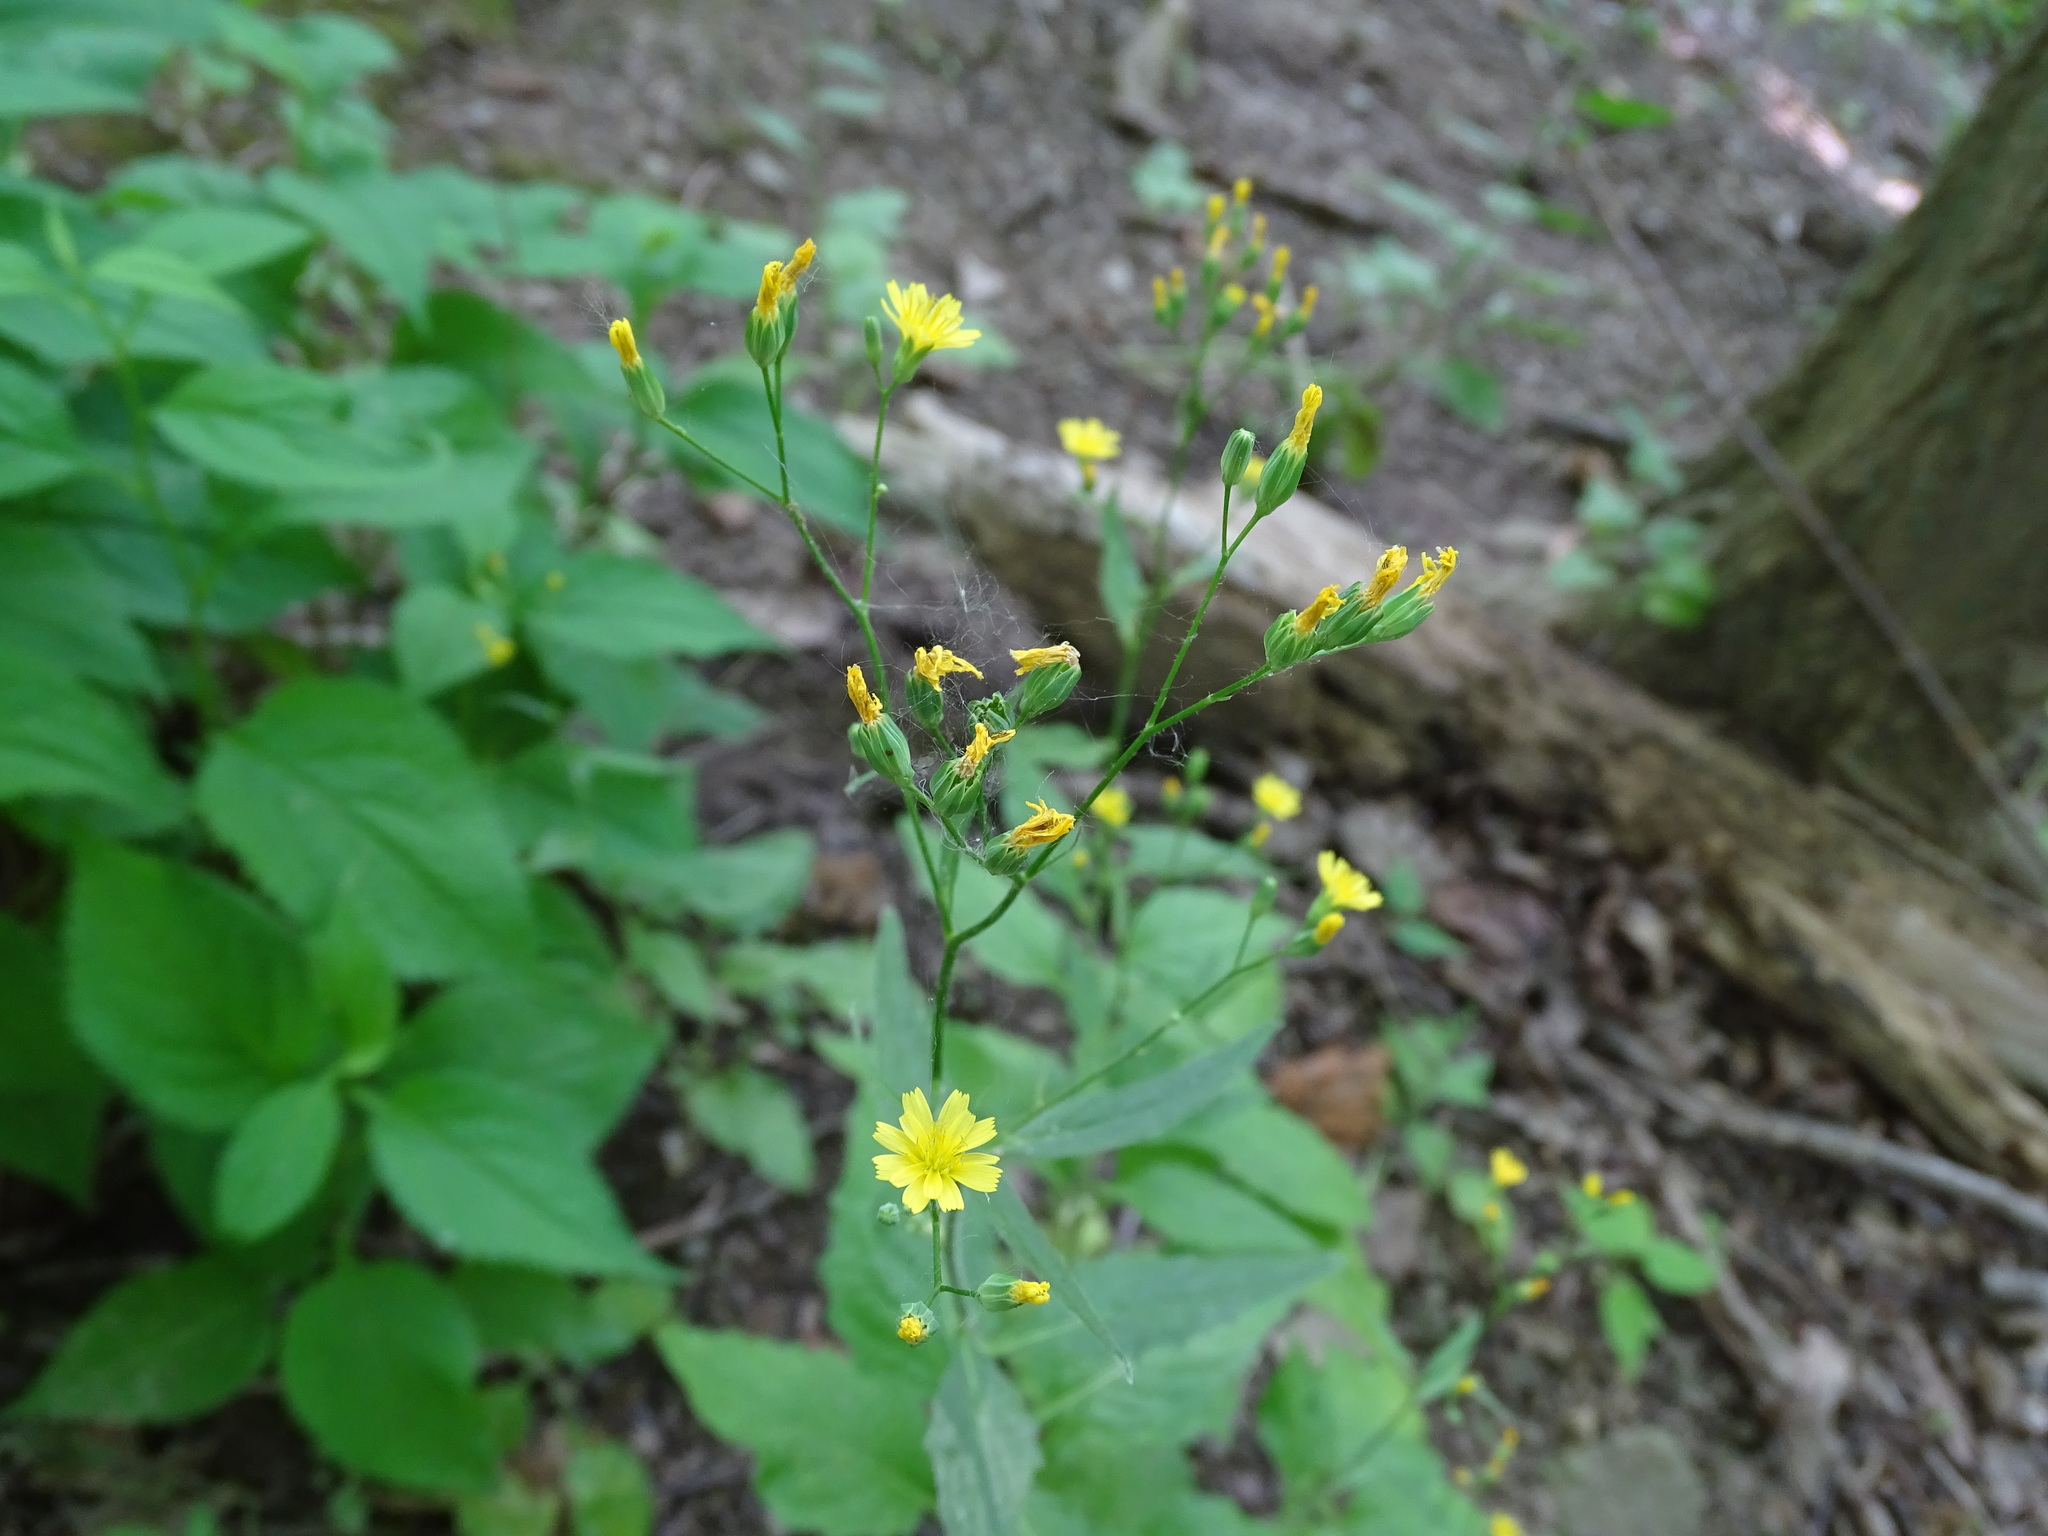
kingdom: Plantae
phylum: Tracheophyta
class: Magnoliopsida
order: Asterales
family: Asteraceae
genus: Lapsana
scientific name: Lapsana communis
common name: Nipplewort
